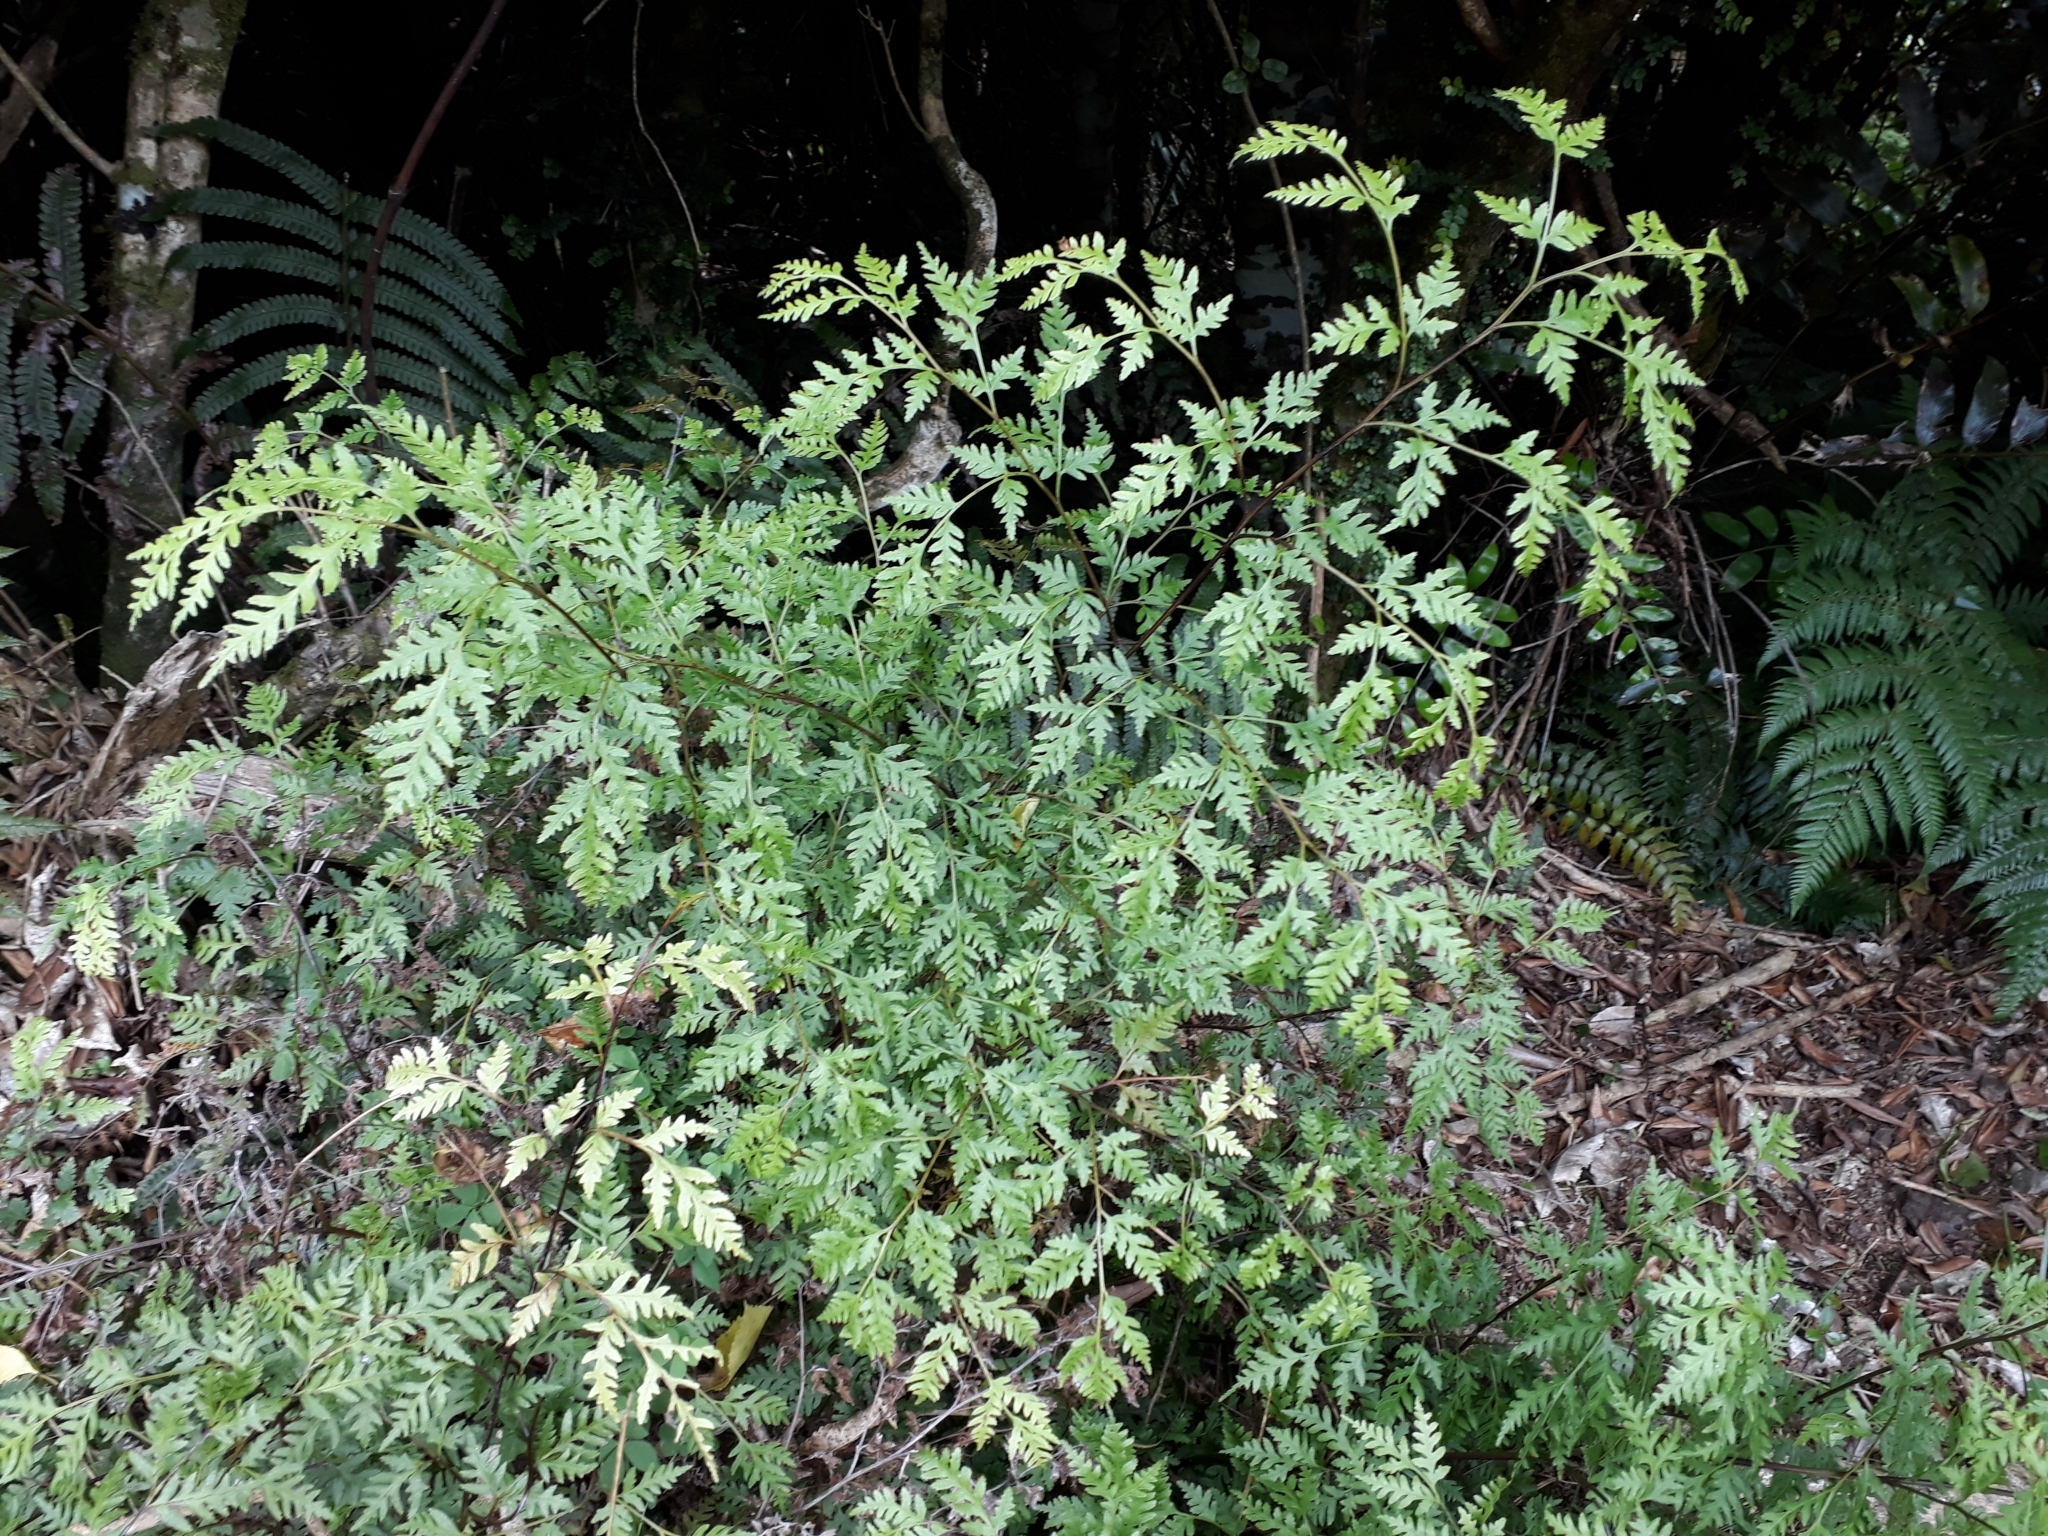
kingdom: Plantae
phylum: Tracheophyta
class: Polypodiopsida
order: Polypodiales
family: Pteridaceae
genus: Pteris
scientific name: Pteris macilenta
